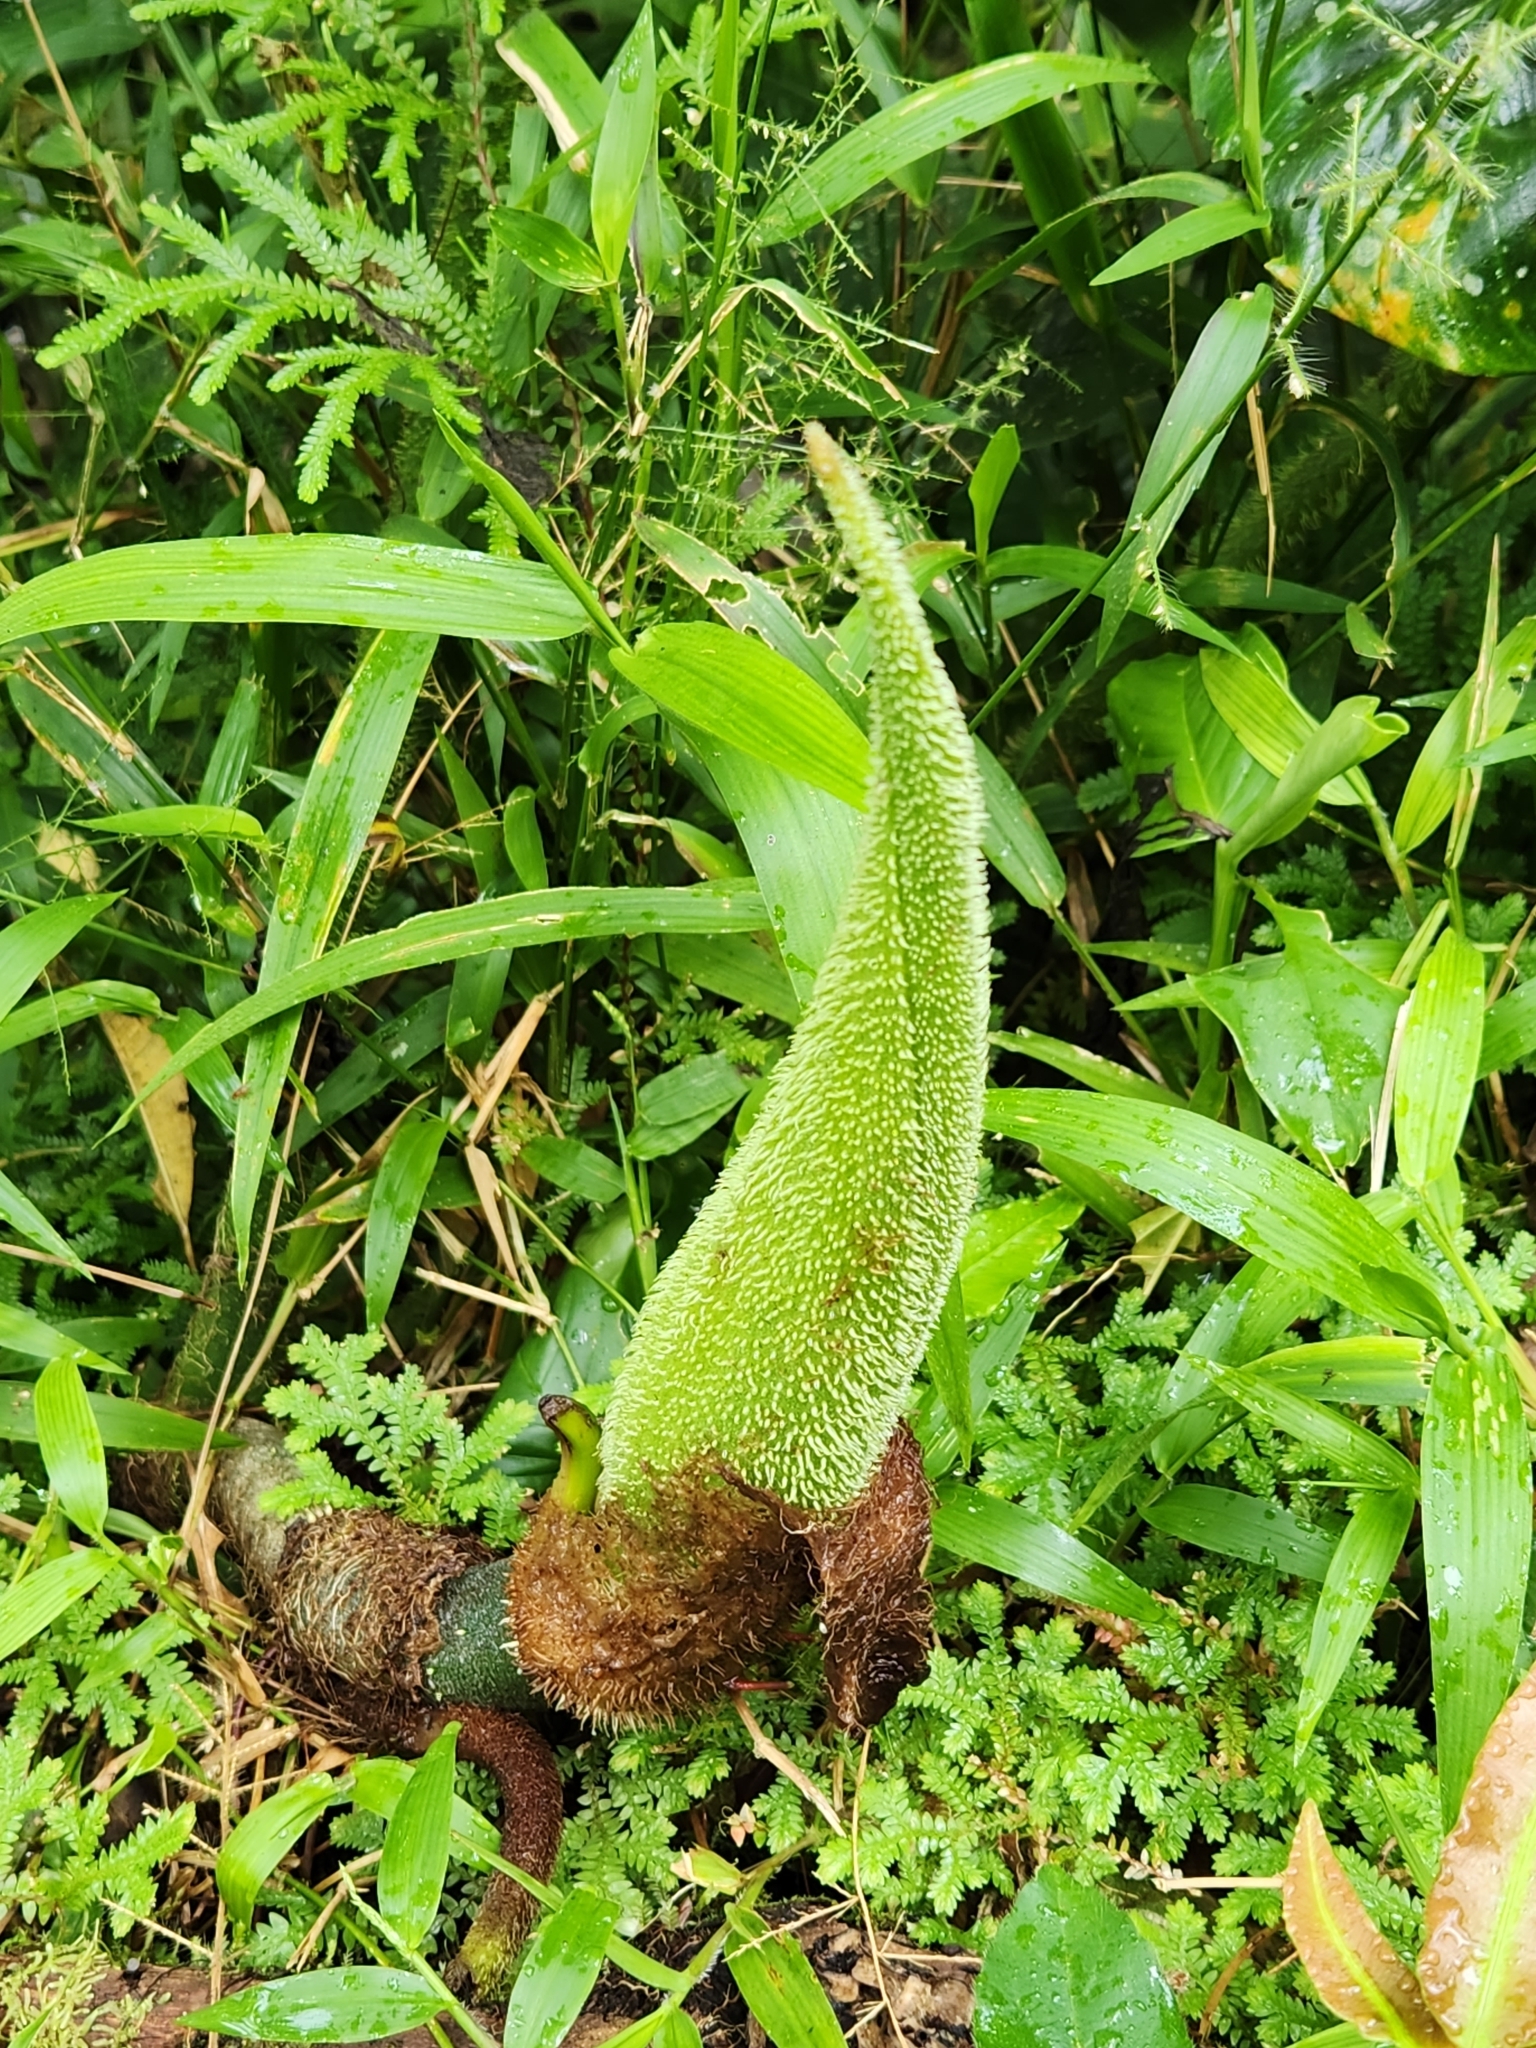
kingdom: Plantae
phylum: Tracheophyta
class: Liliopsida
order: Alismatales
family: Araceae
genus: Philodendron
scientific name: Philodendron verrucosum
